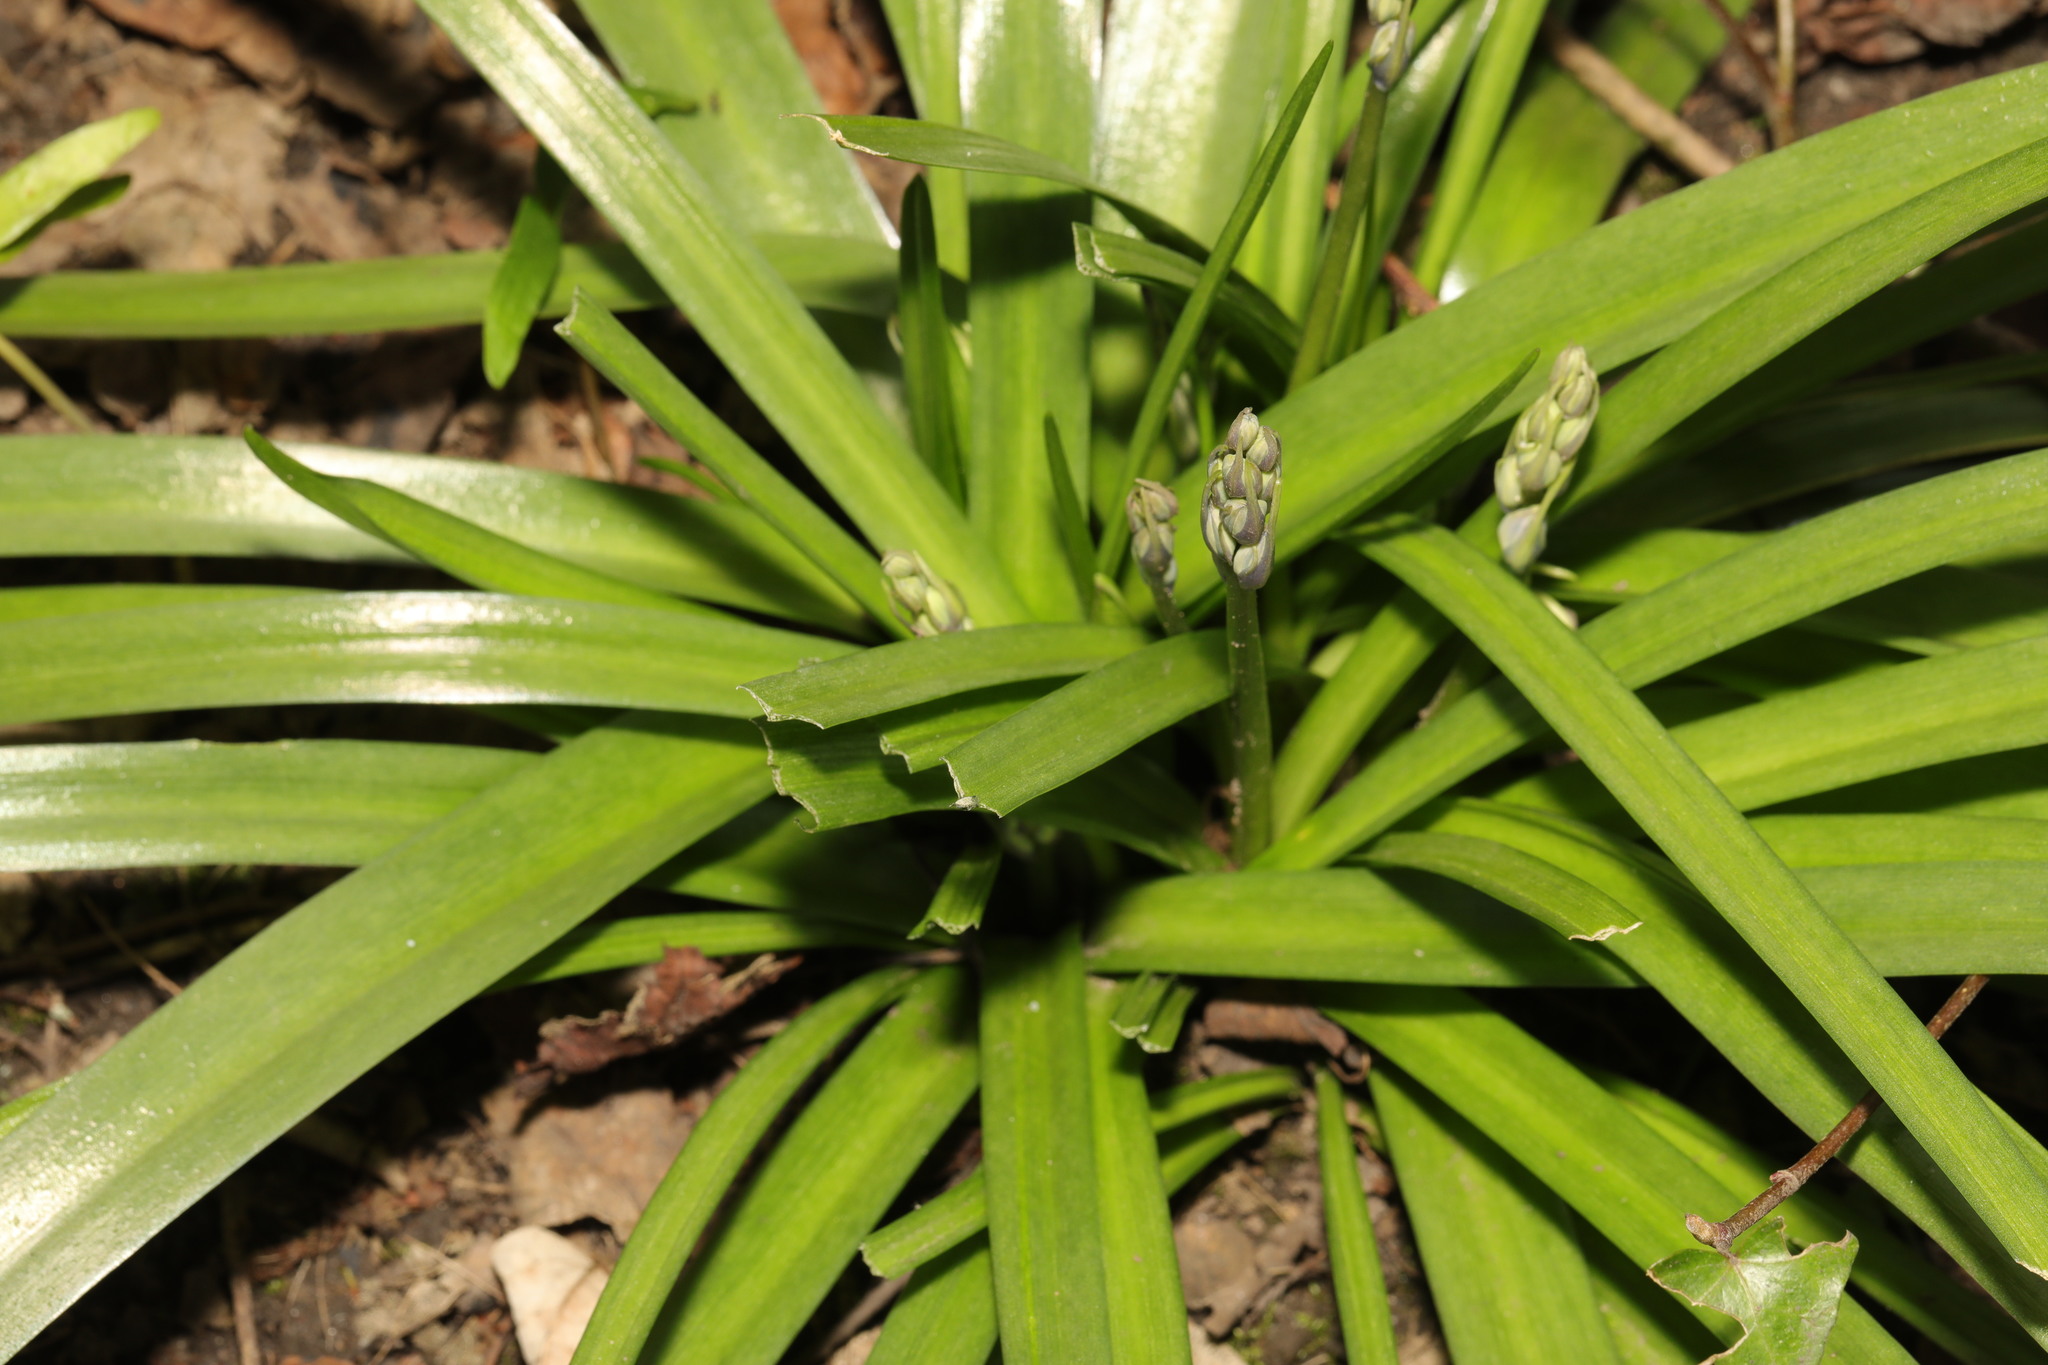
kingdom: Plantae
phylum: Tracheophyta
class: Liliopsida
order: Asparagales
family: Asparagaceae
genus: Hyacinthoides
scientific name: Hyacinthoides hispanica
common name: Spanish bluebell
